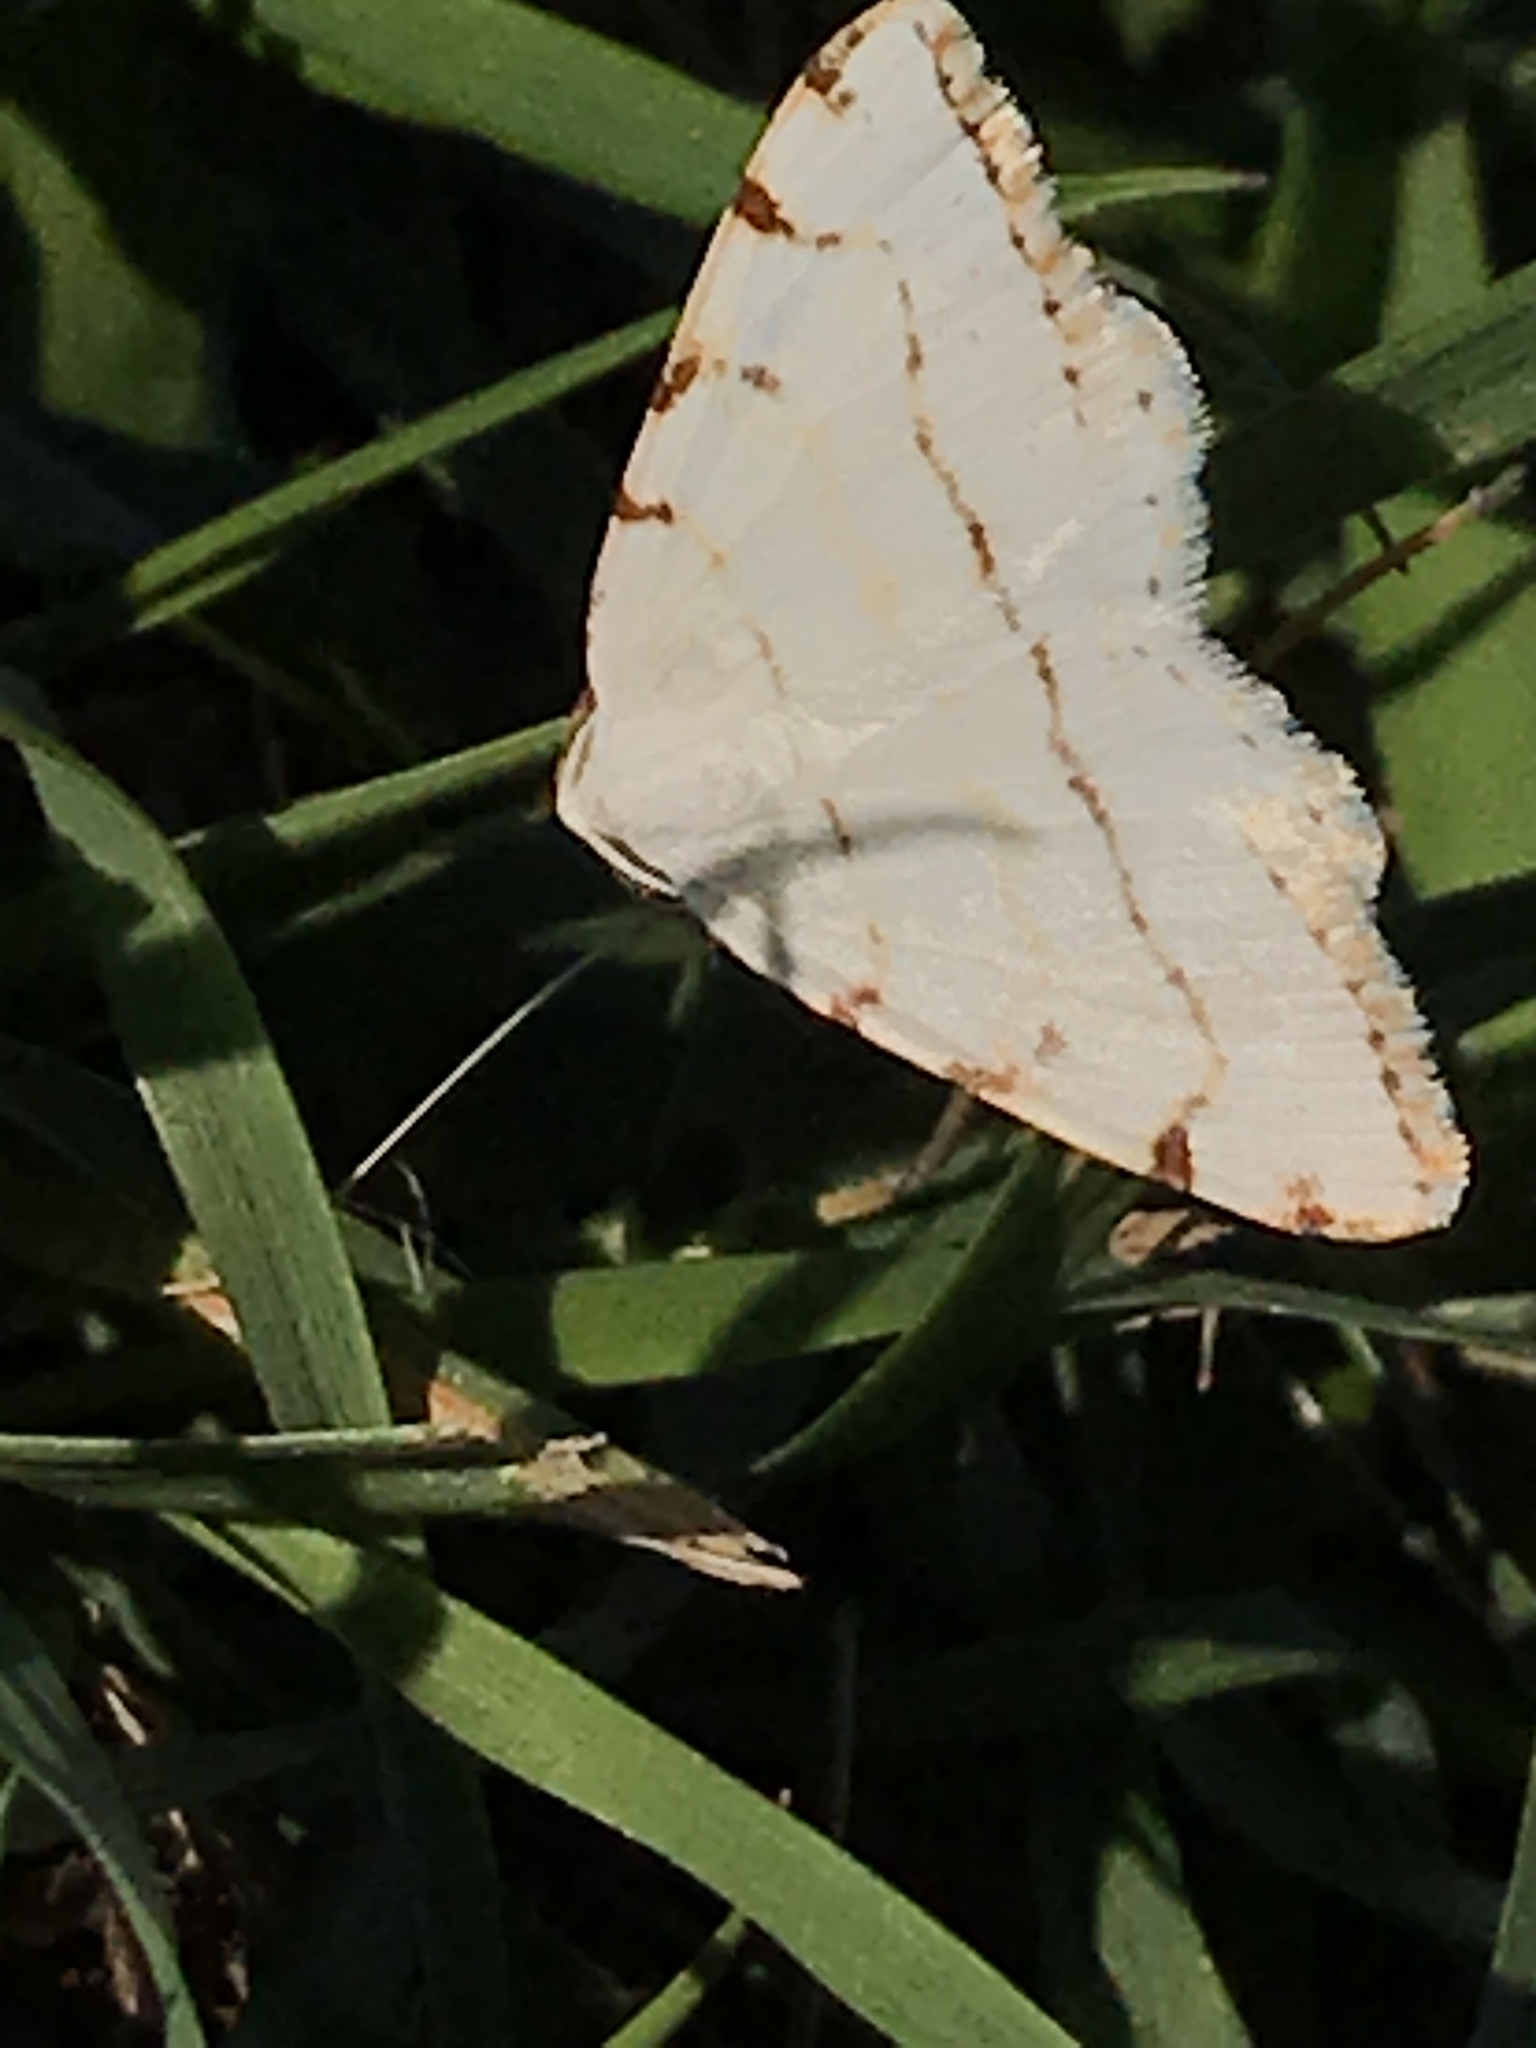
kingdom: Animalia
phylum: Arthropoda
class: Insecta
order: Lepidoptera
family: Geometridae
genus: Macaria
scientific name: Macaria pustularia
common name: Lesser maple spanworm moth
